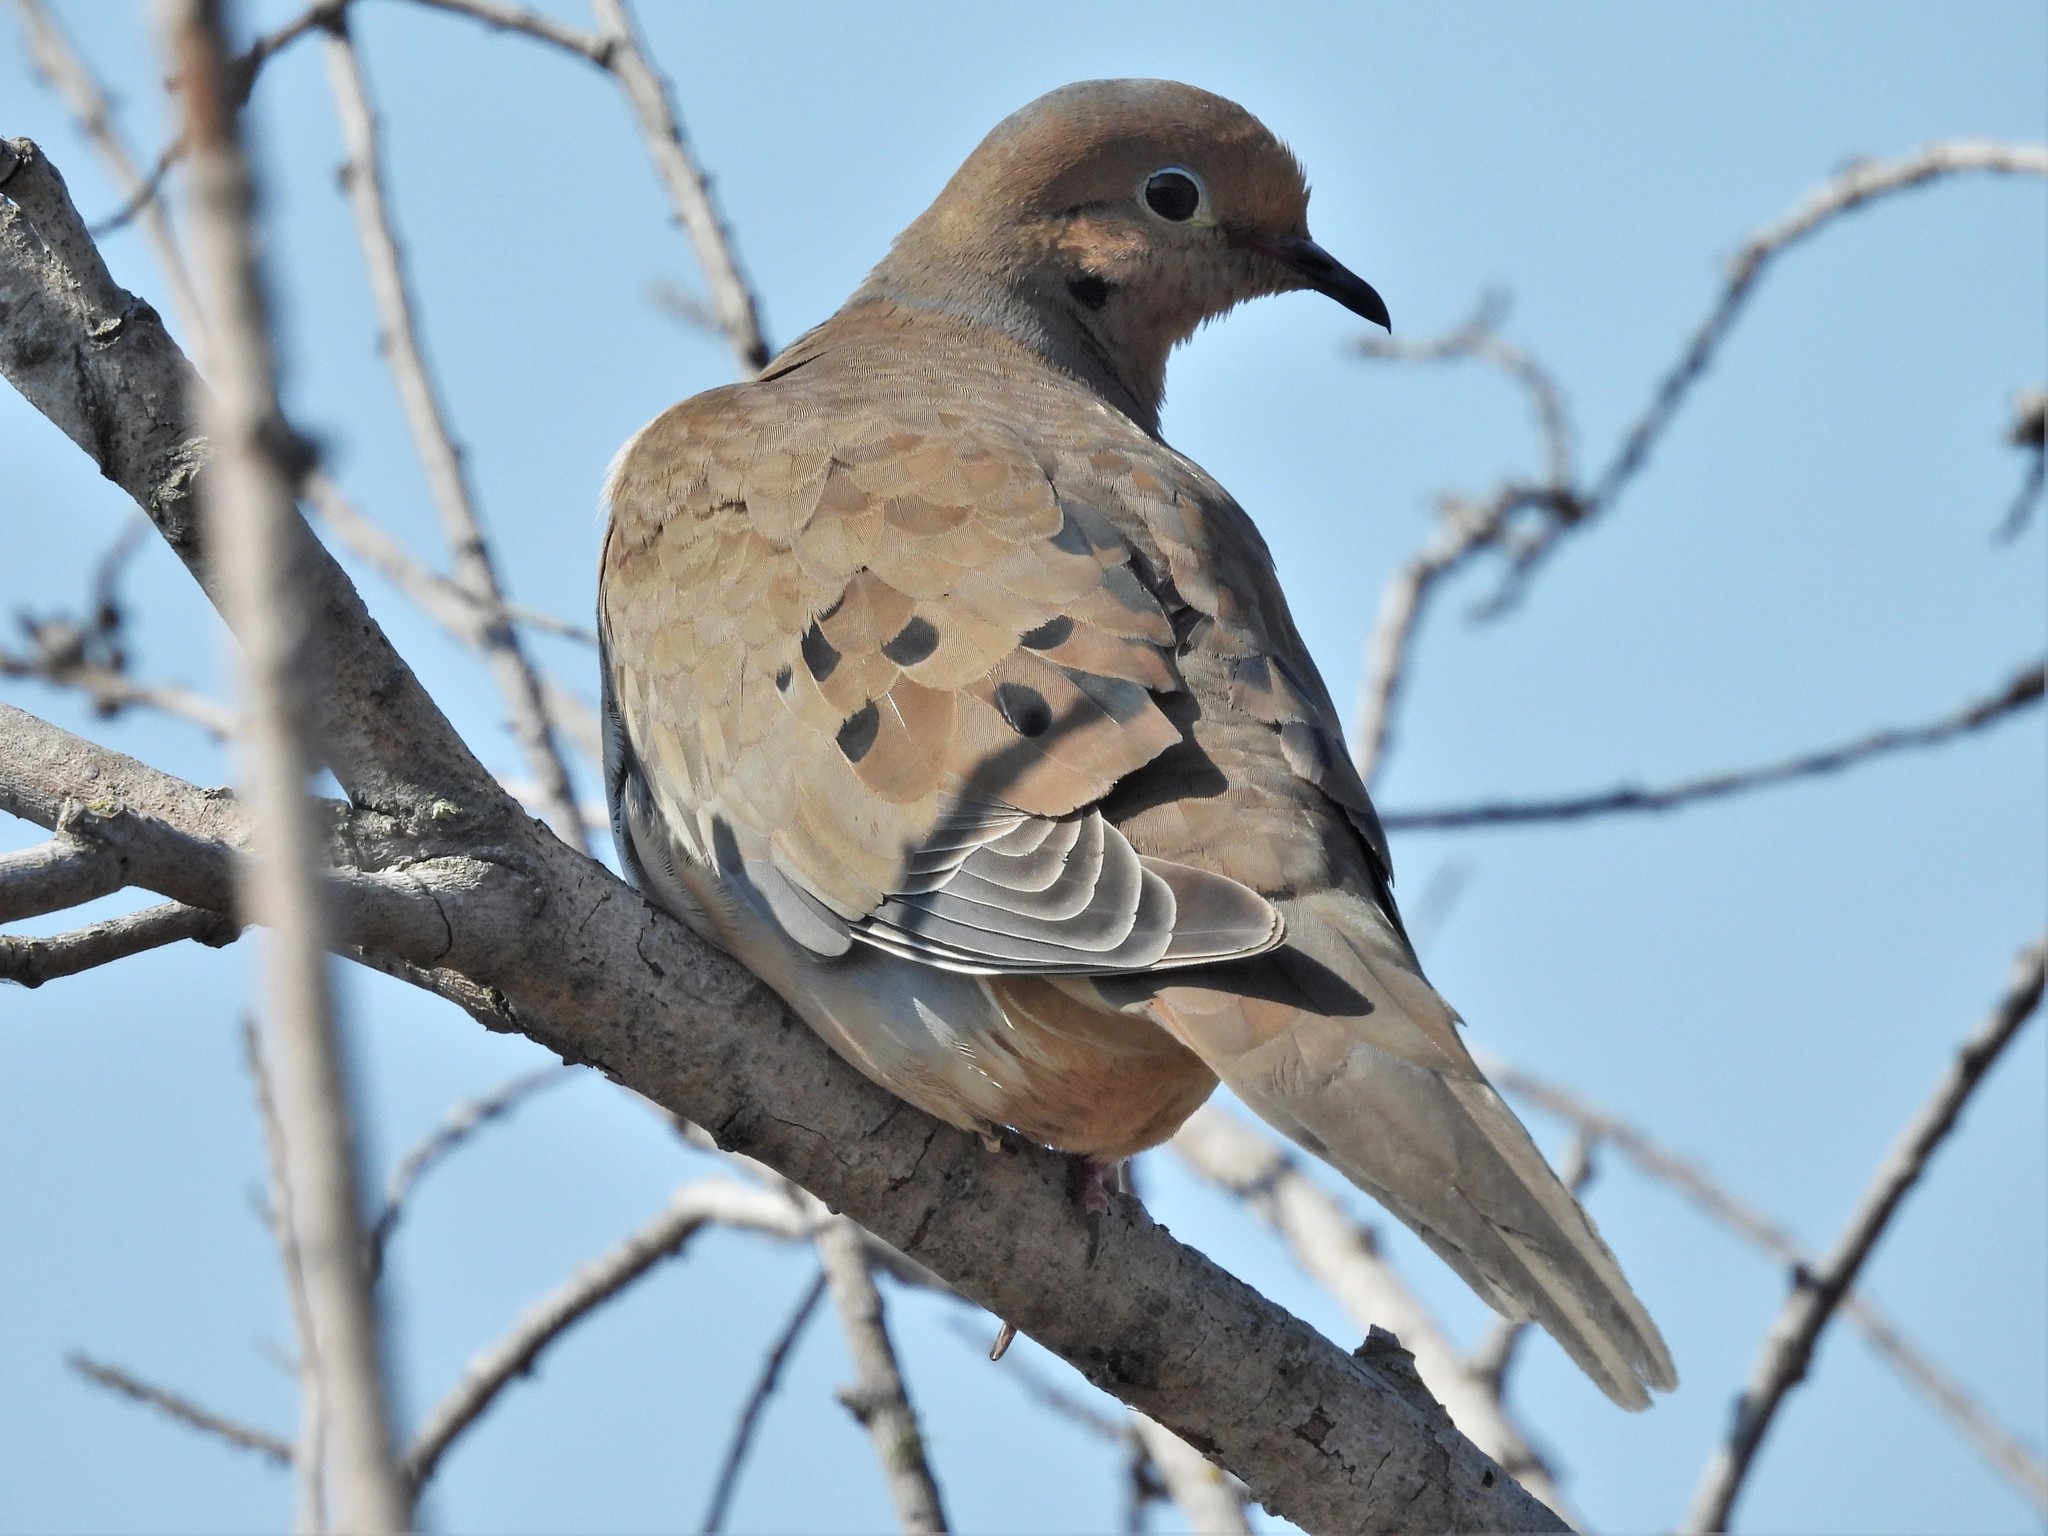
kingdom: Animalia
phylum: Chordata
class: Aves
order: Columbiformes
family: Columbidae
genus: Zenaida
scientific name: Zenaida macroura
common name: Mourning dove
